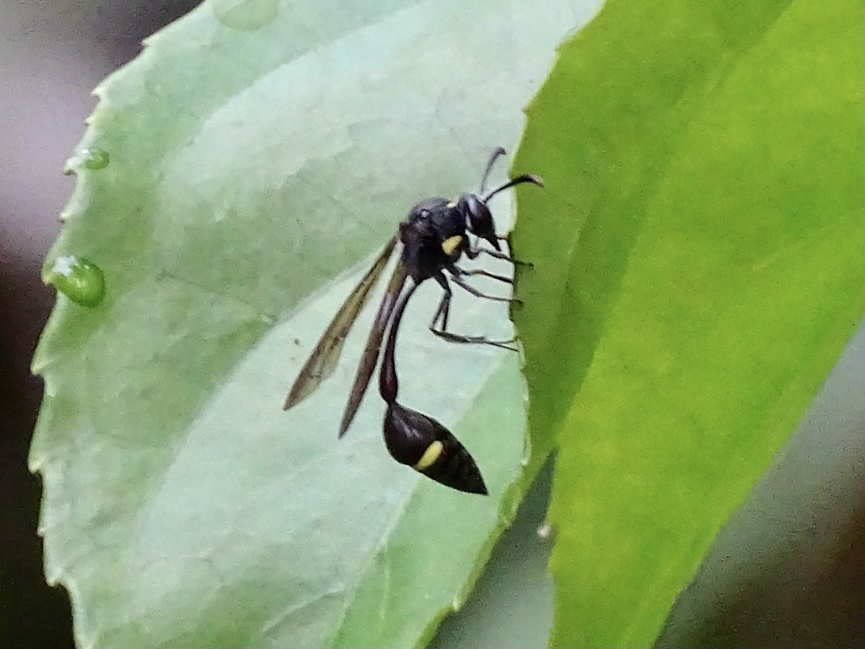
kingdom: Animalia
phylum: Arthropoda
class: Insecta
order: Hymenoptera
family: Vespidae
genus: Eustenogaster
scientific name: Eustenogaster nigra
